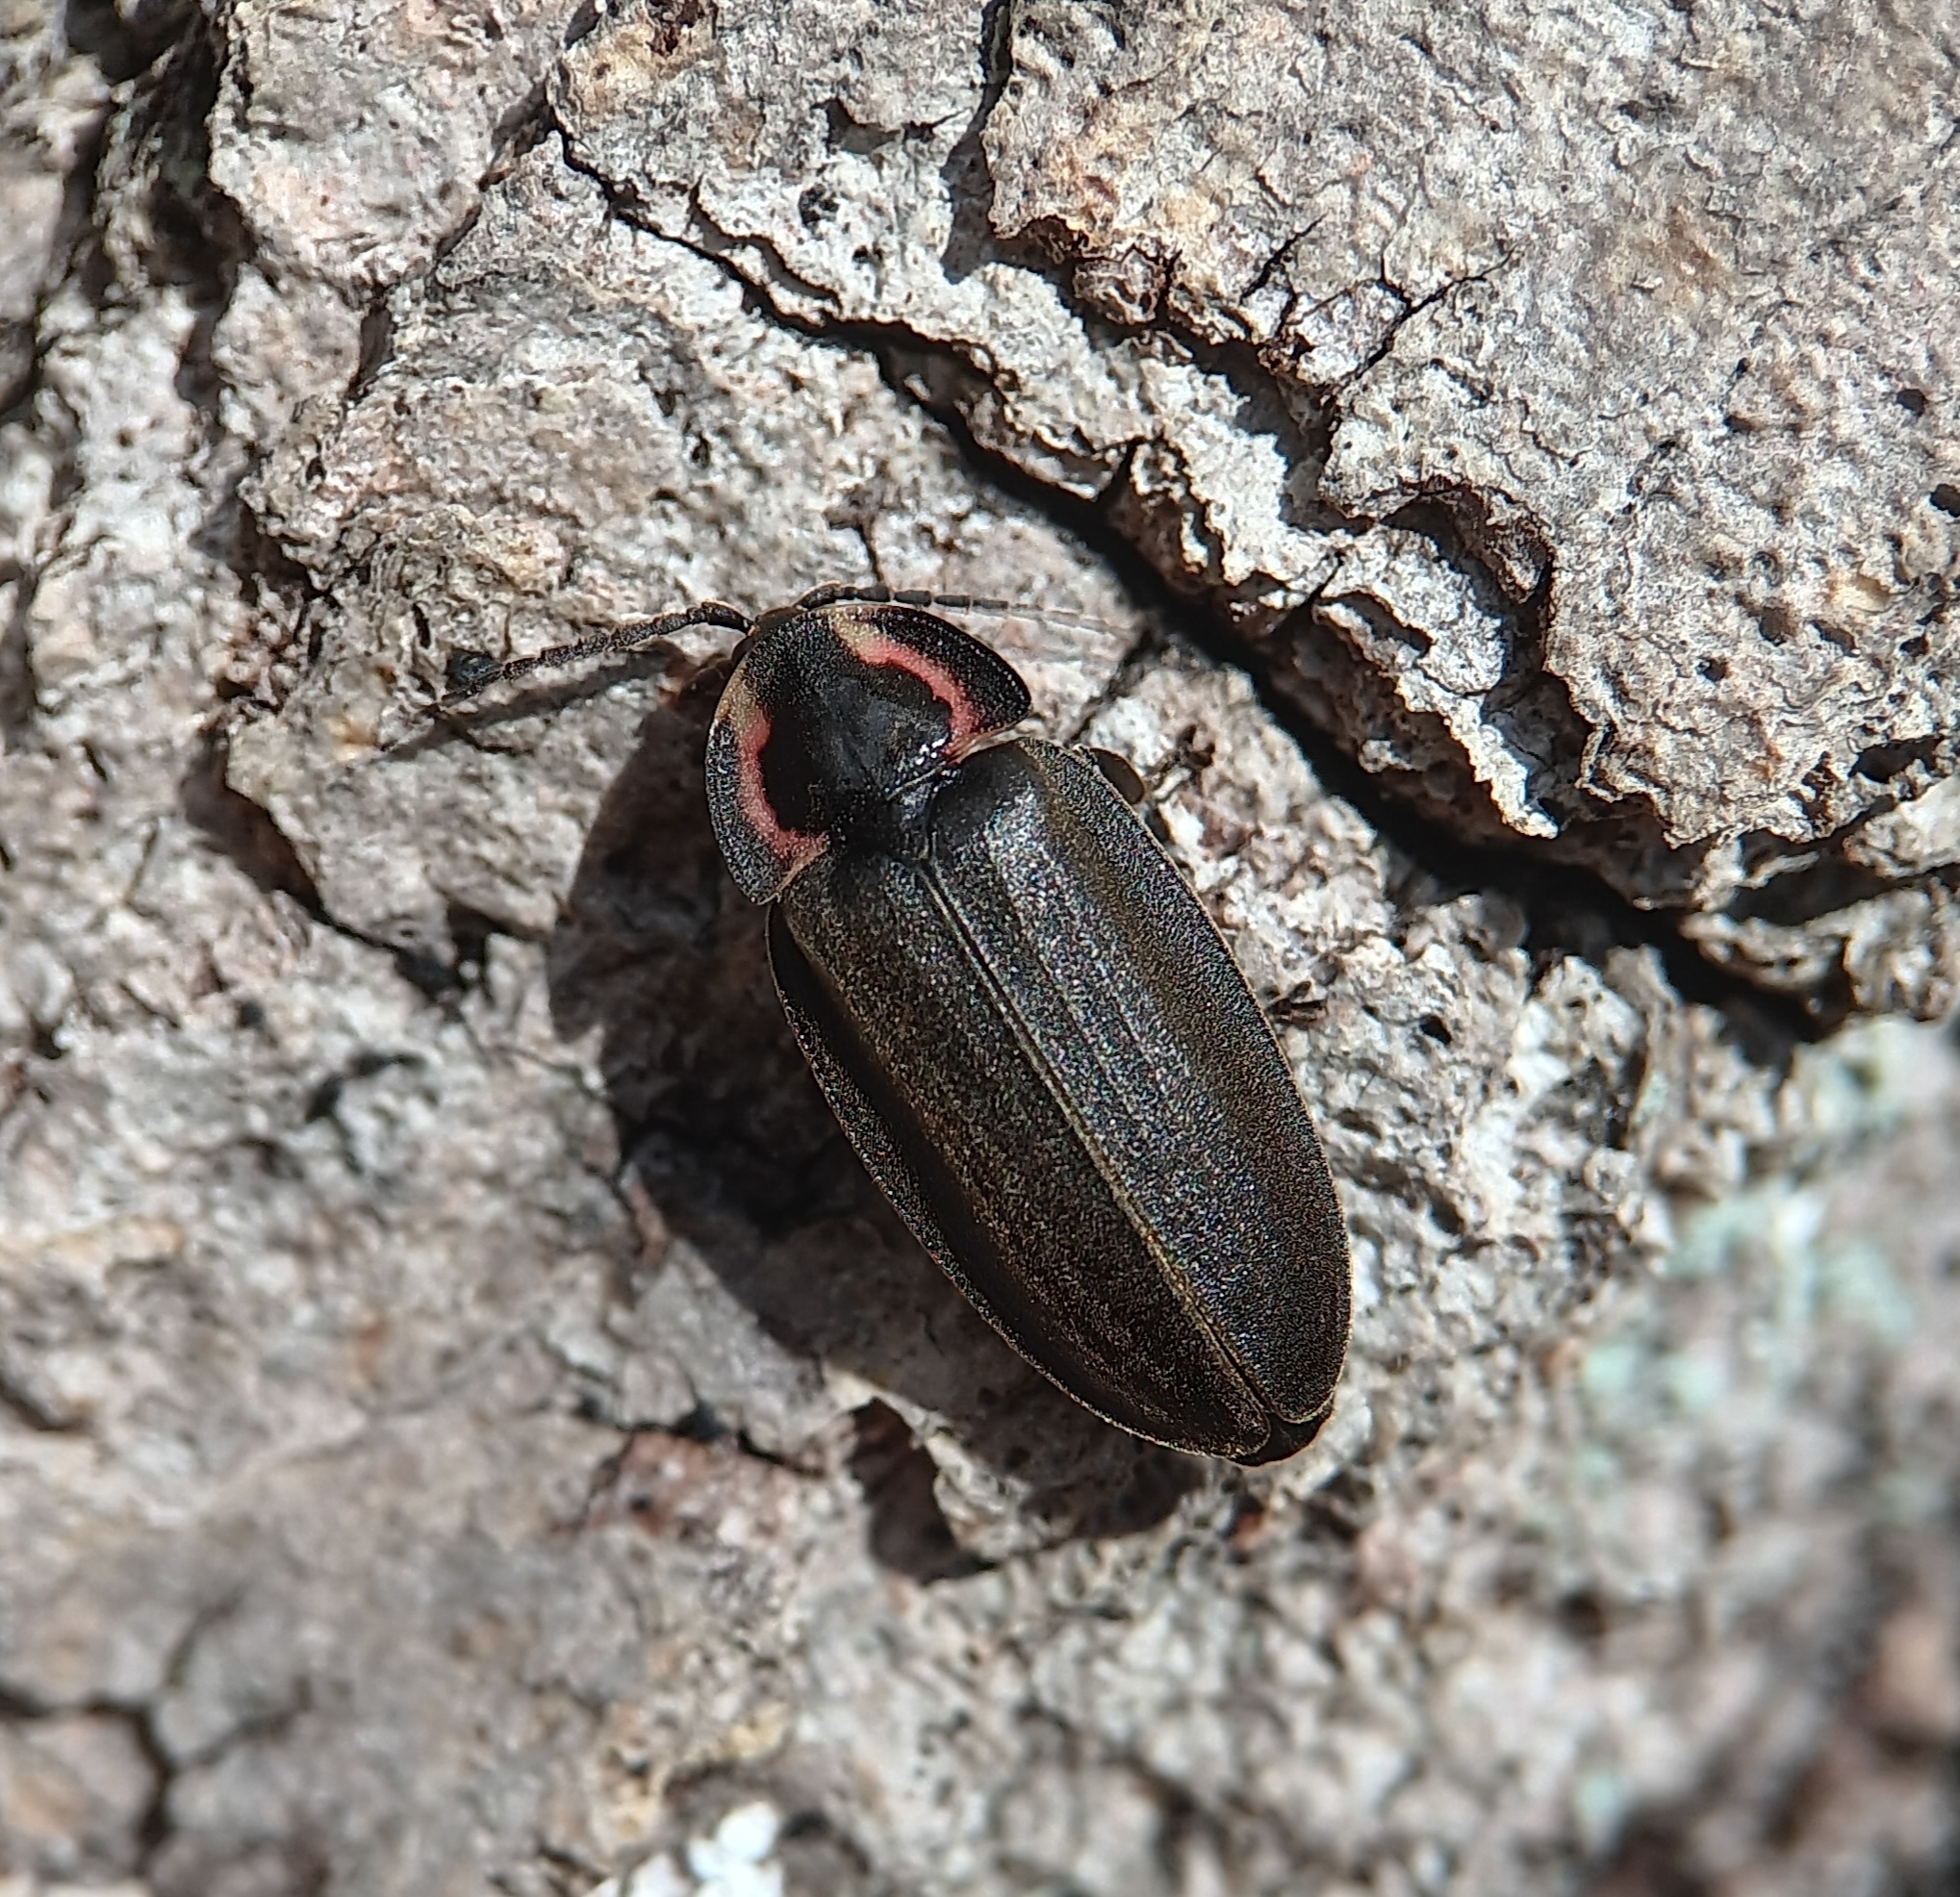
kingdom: Animalia
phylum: Arthropoda
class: Insecta
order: Coleoptera
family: Lampyridae
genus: Photinus
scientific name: Photinus corrusca
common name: Winter firefly
